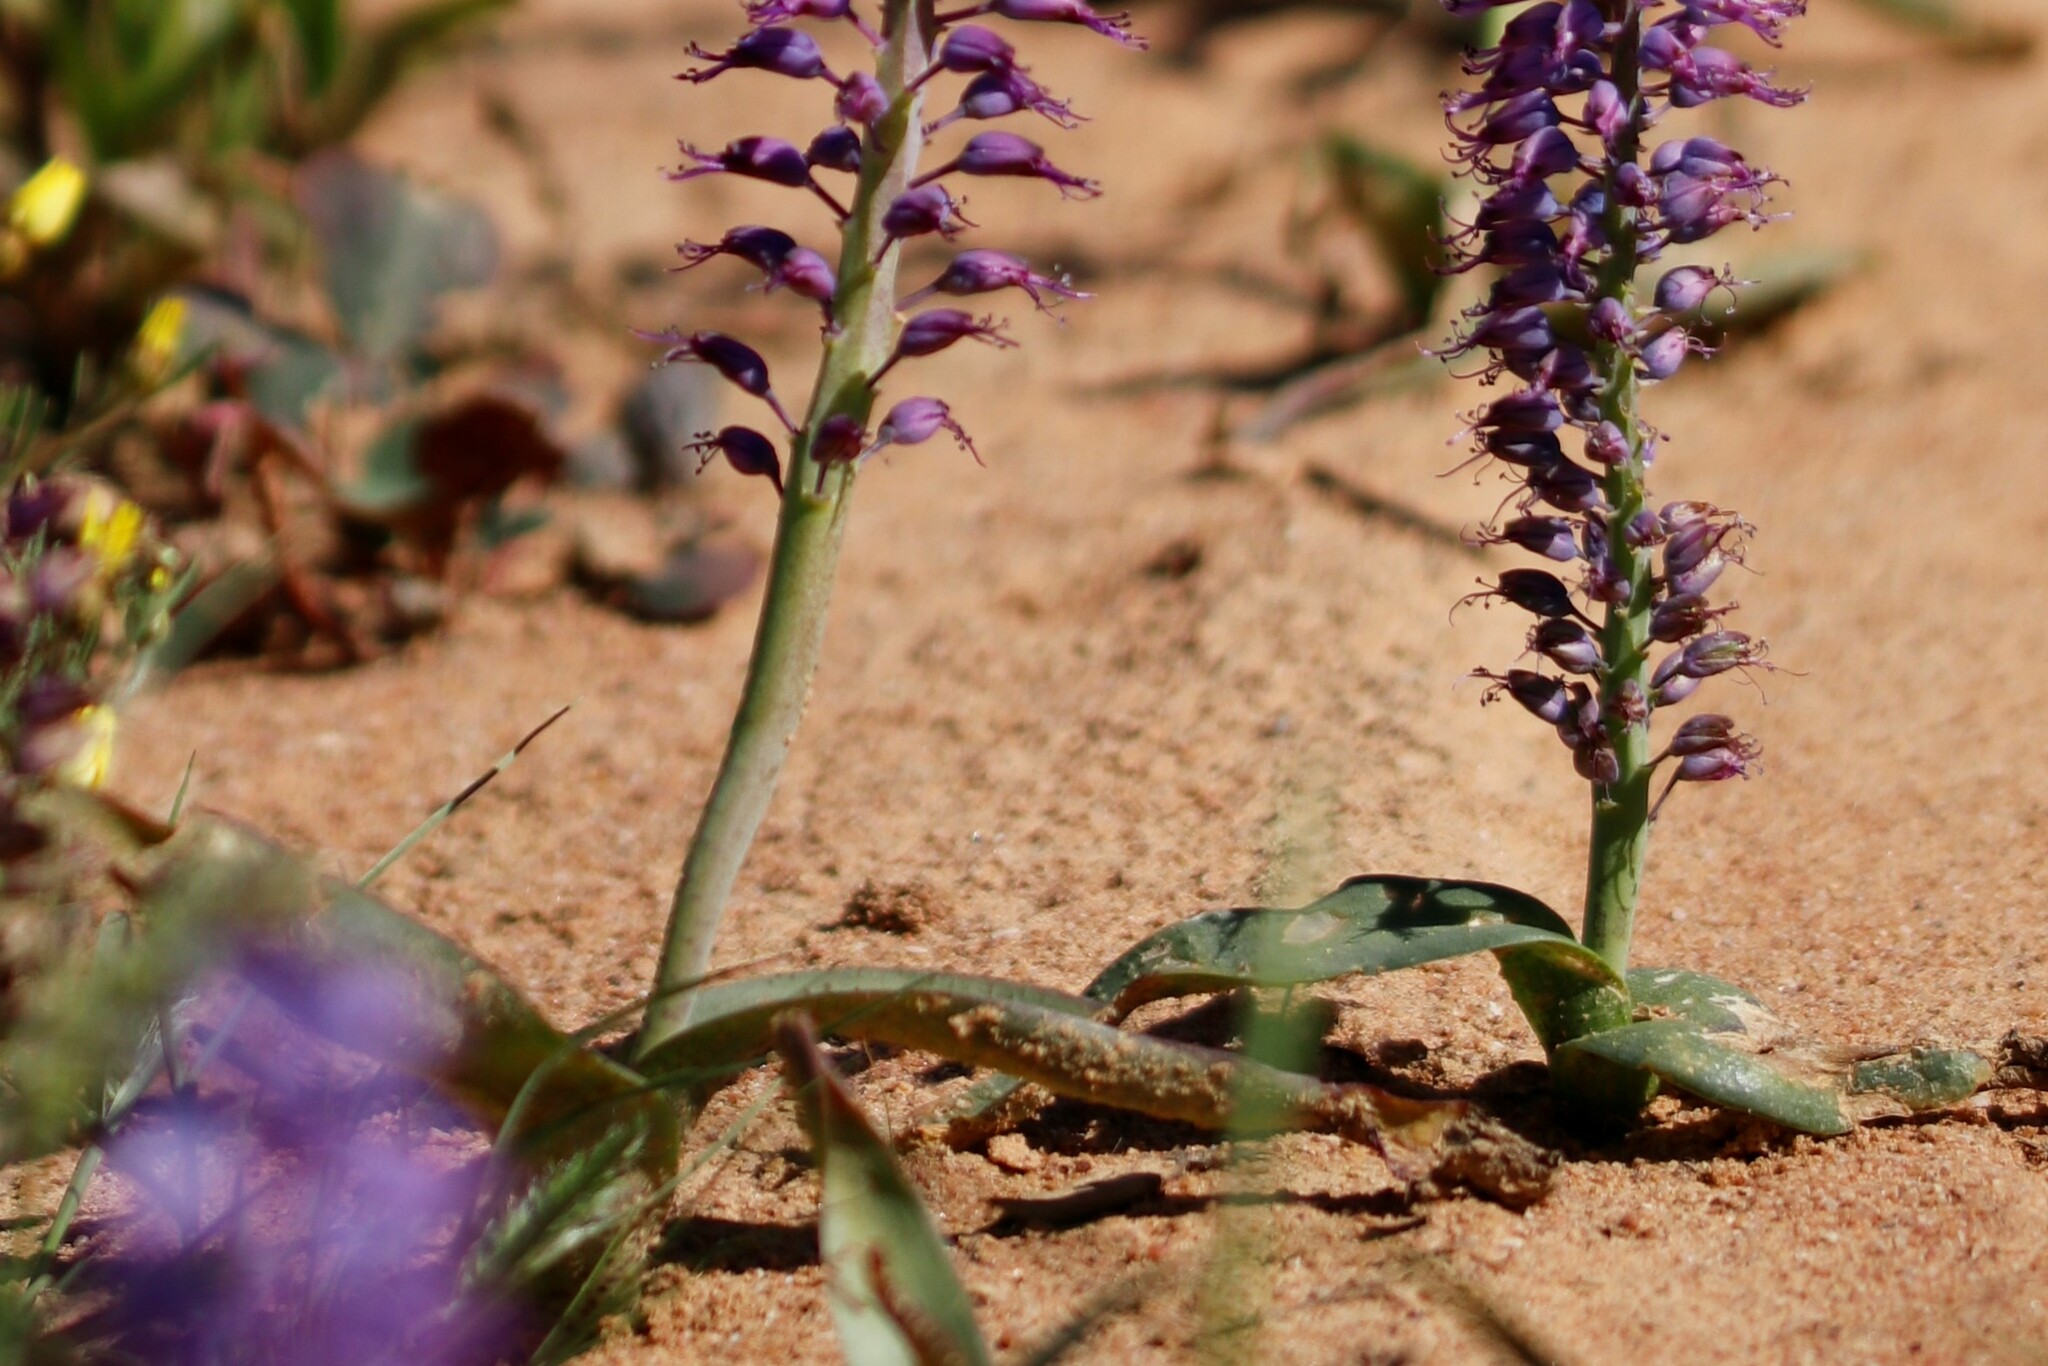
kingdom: Plantae
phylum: Tracheophyta
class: Liliopsida
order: Asparagales
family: Asparagaceae
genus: Lachenalia
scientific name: Lachenalia pallida
